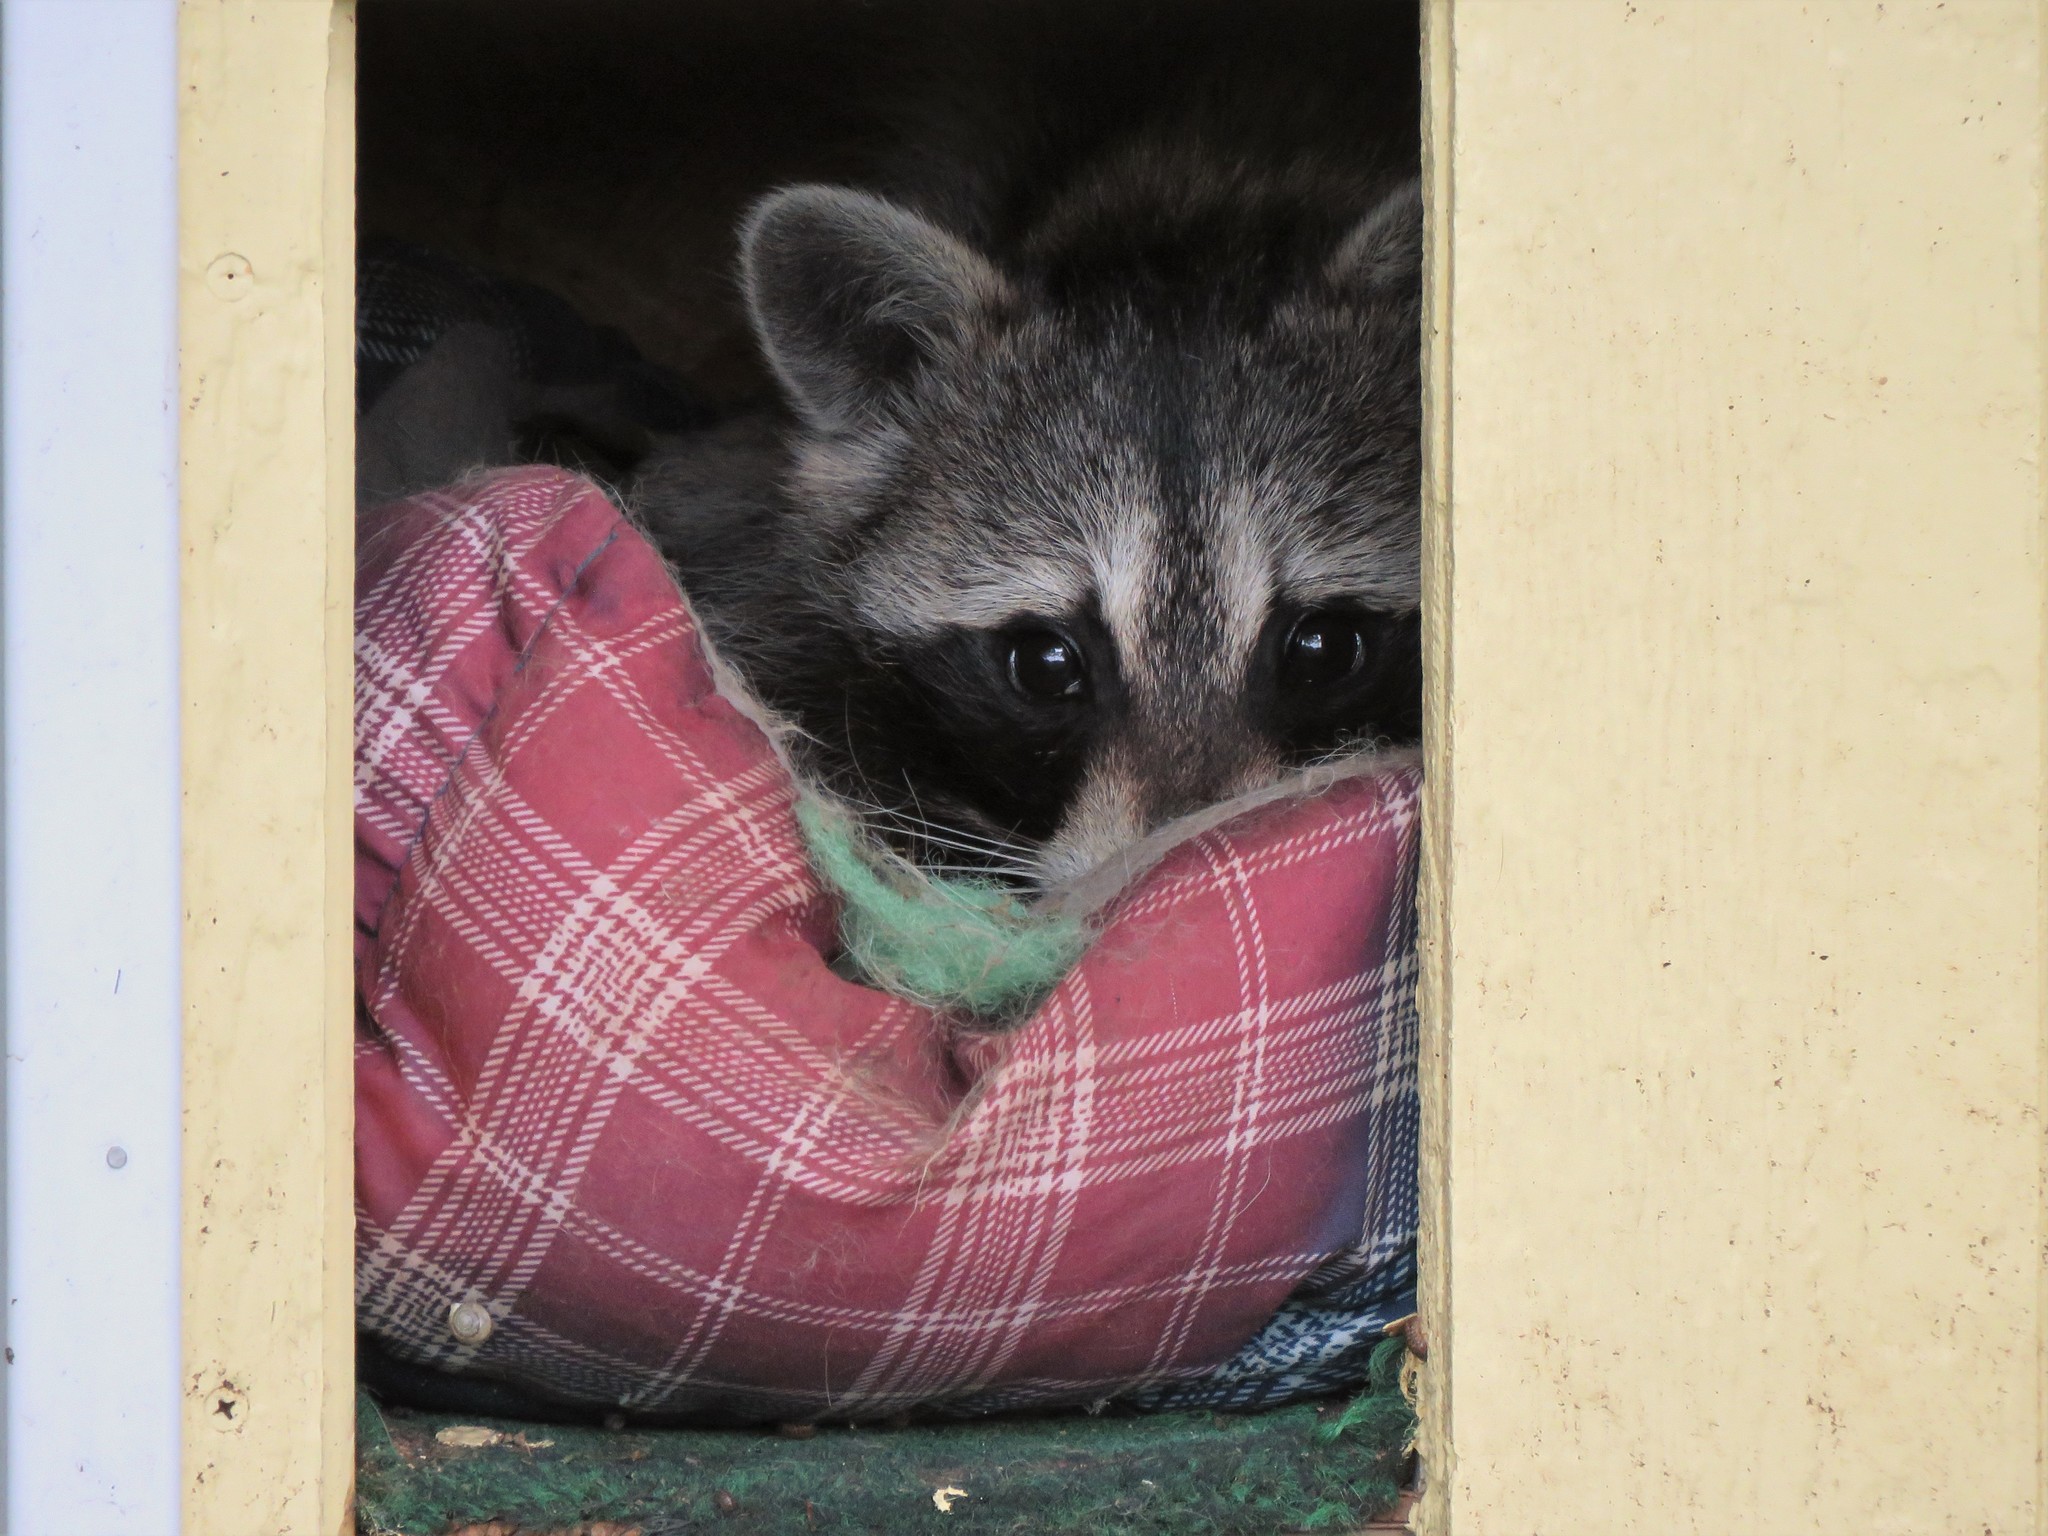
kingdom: Animalia
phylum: Chordata
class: Mammalia
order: Carnivora
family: Procyonidae
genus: Procyon
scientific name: Procyon lotor
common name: Raccoon
